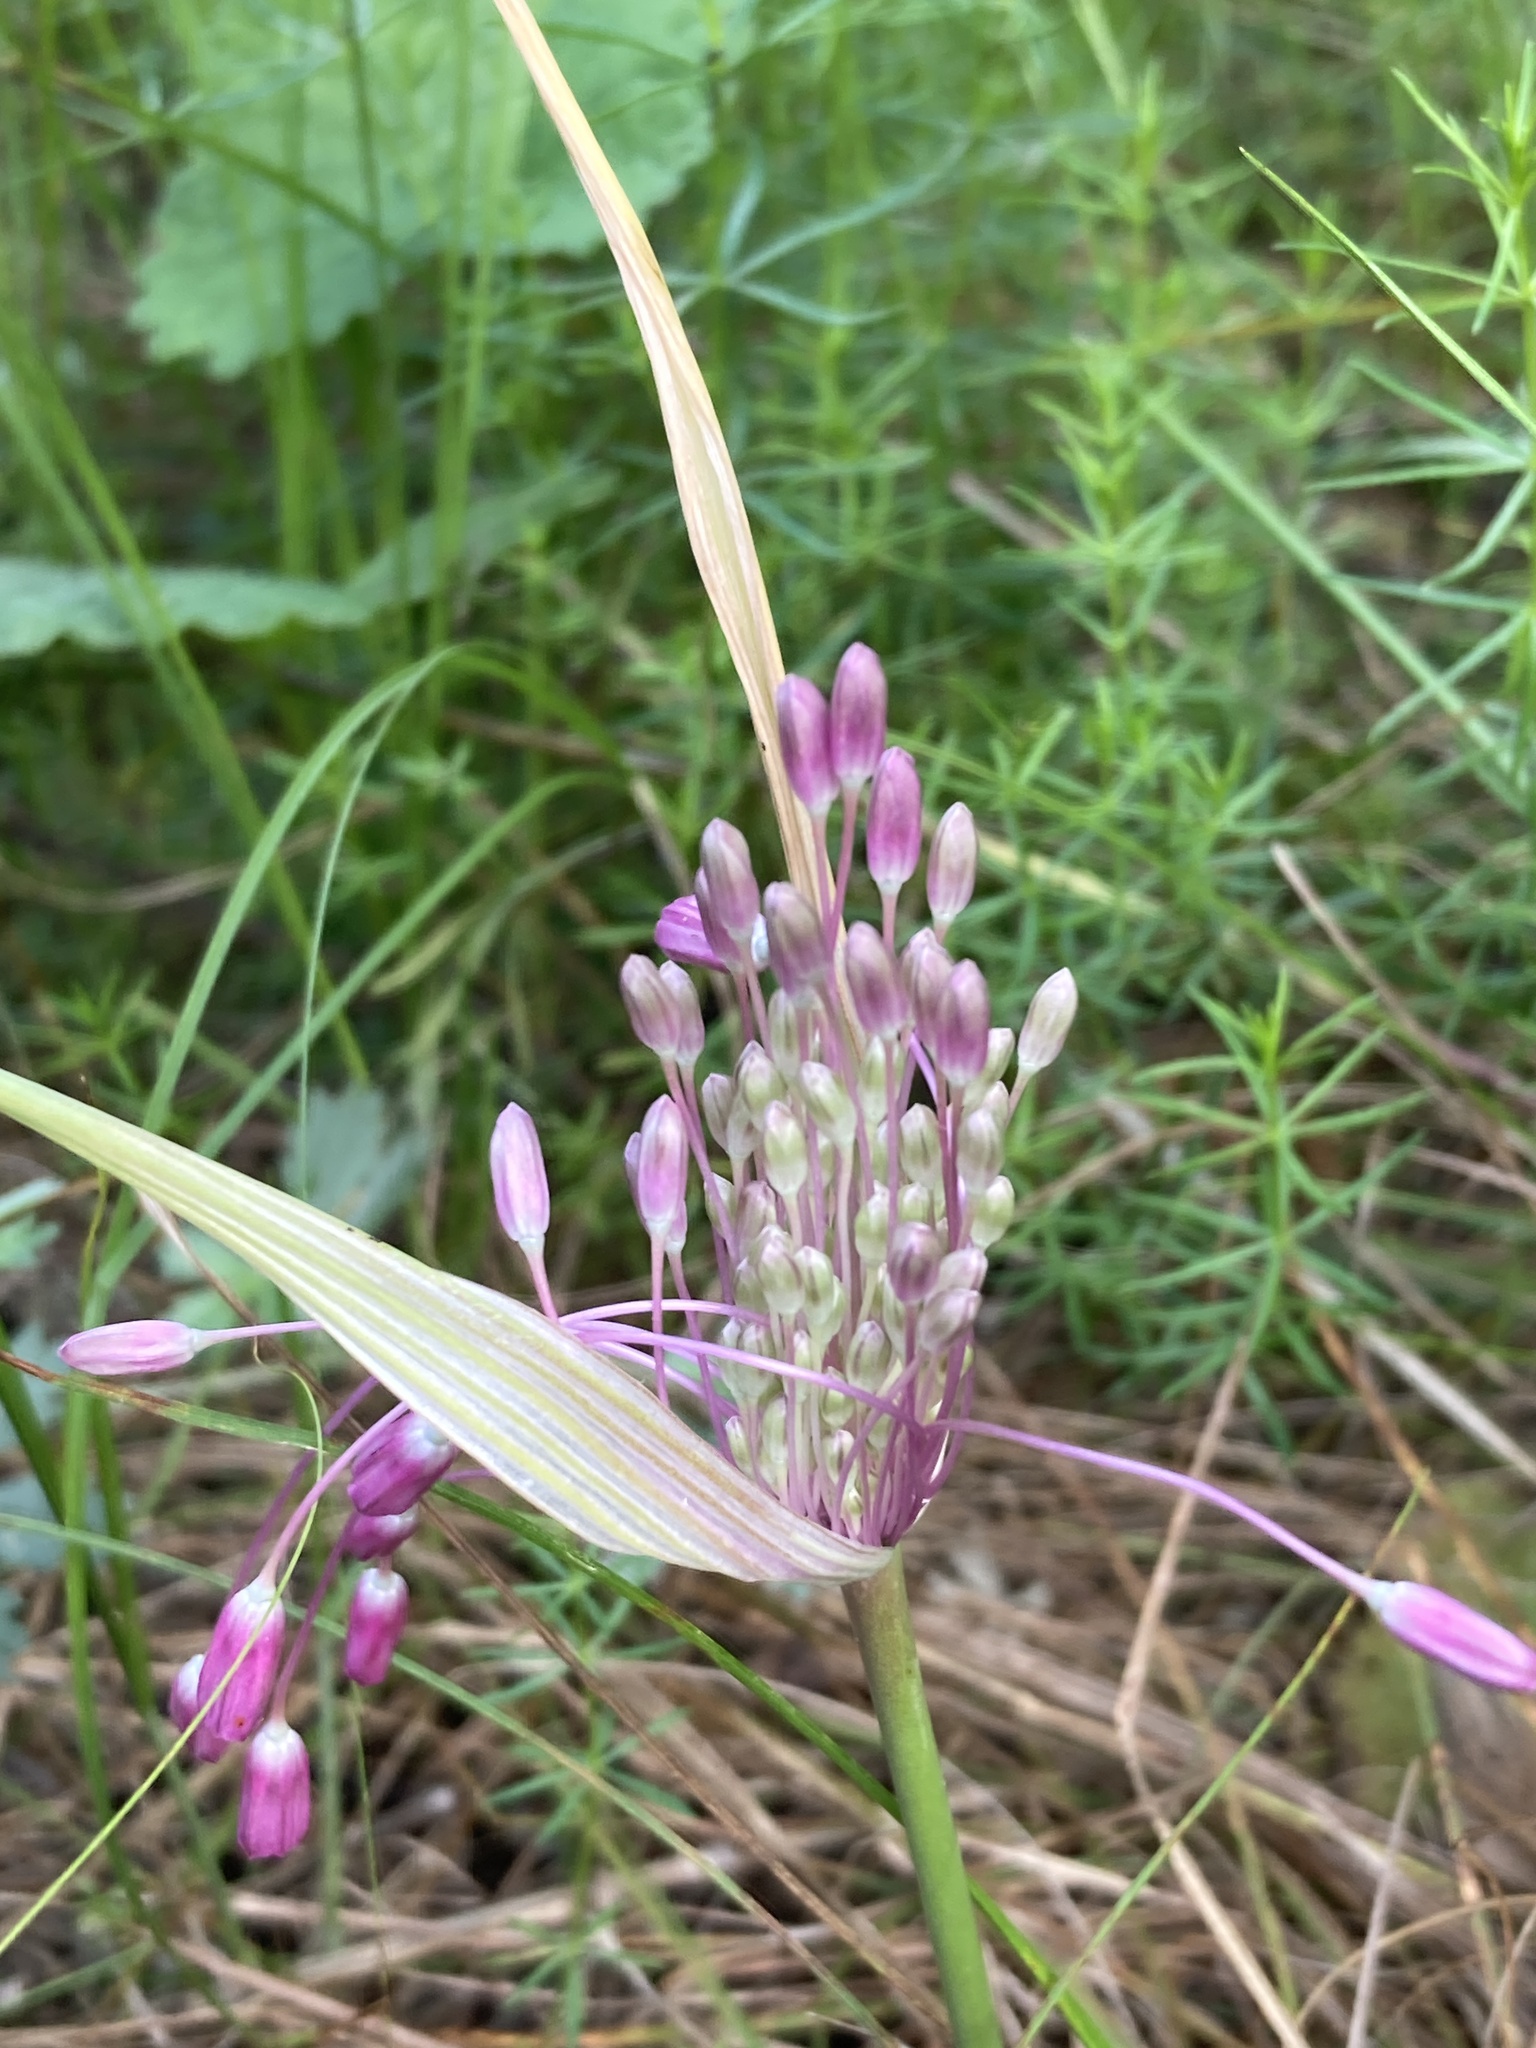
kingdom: Plantae
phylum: Tracheophyta
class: Liliopsida
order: Asparagales
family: Amaryllidaceae
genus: Allium
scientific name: Allium praescissum
